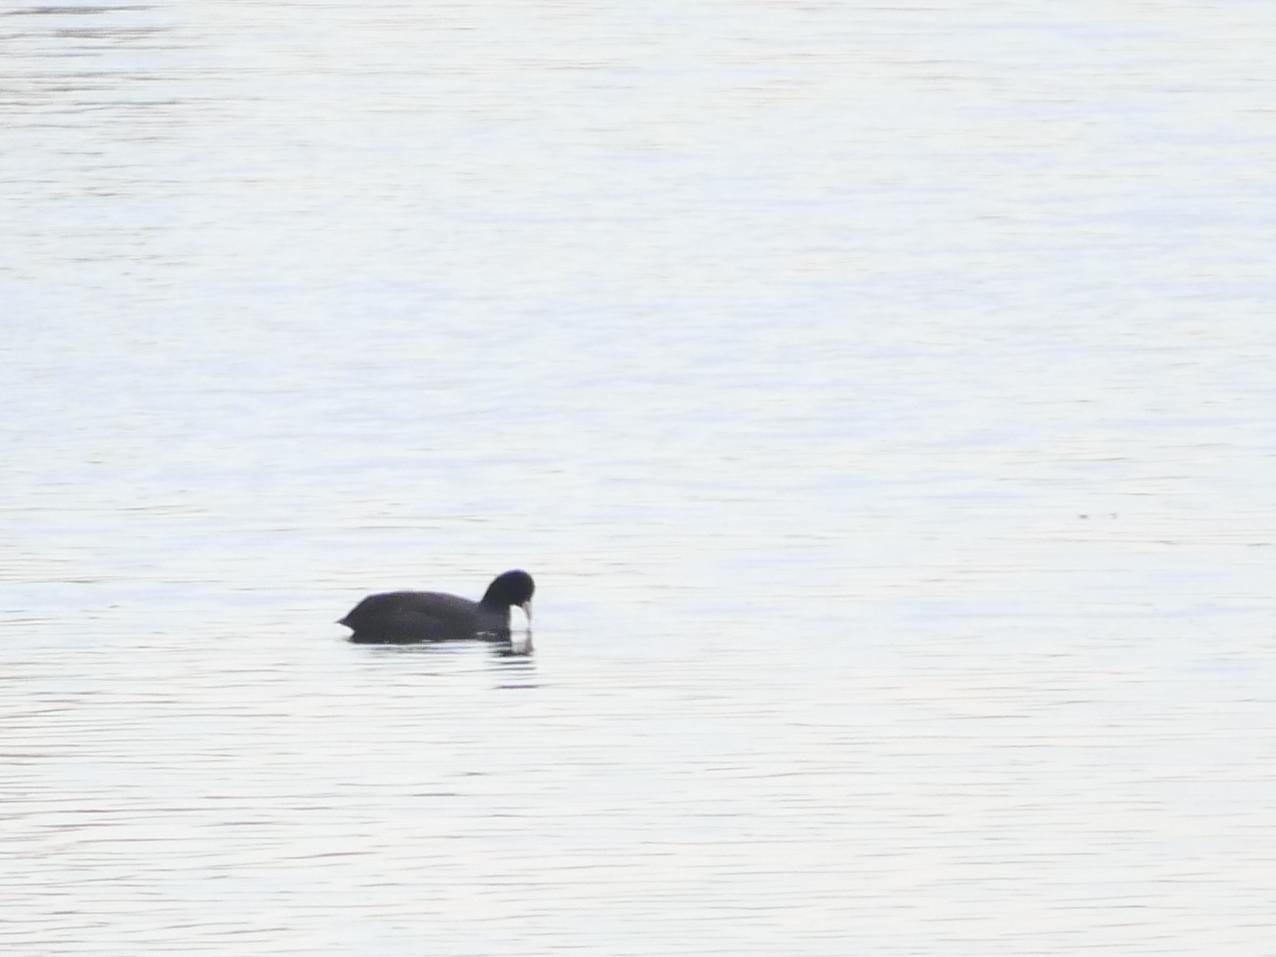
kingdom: Animalia
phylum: Chordata
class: Aves
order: Gruiformes
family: Rallidae
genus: Fulica
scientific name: Fulica atra
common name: Eurasian coot
